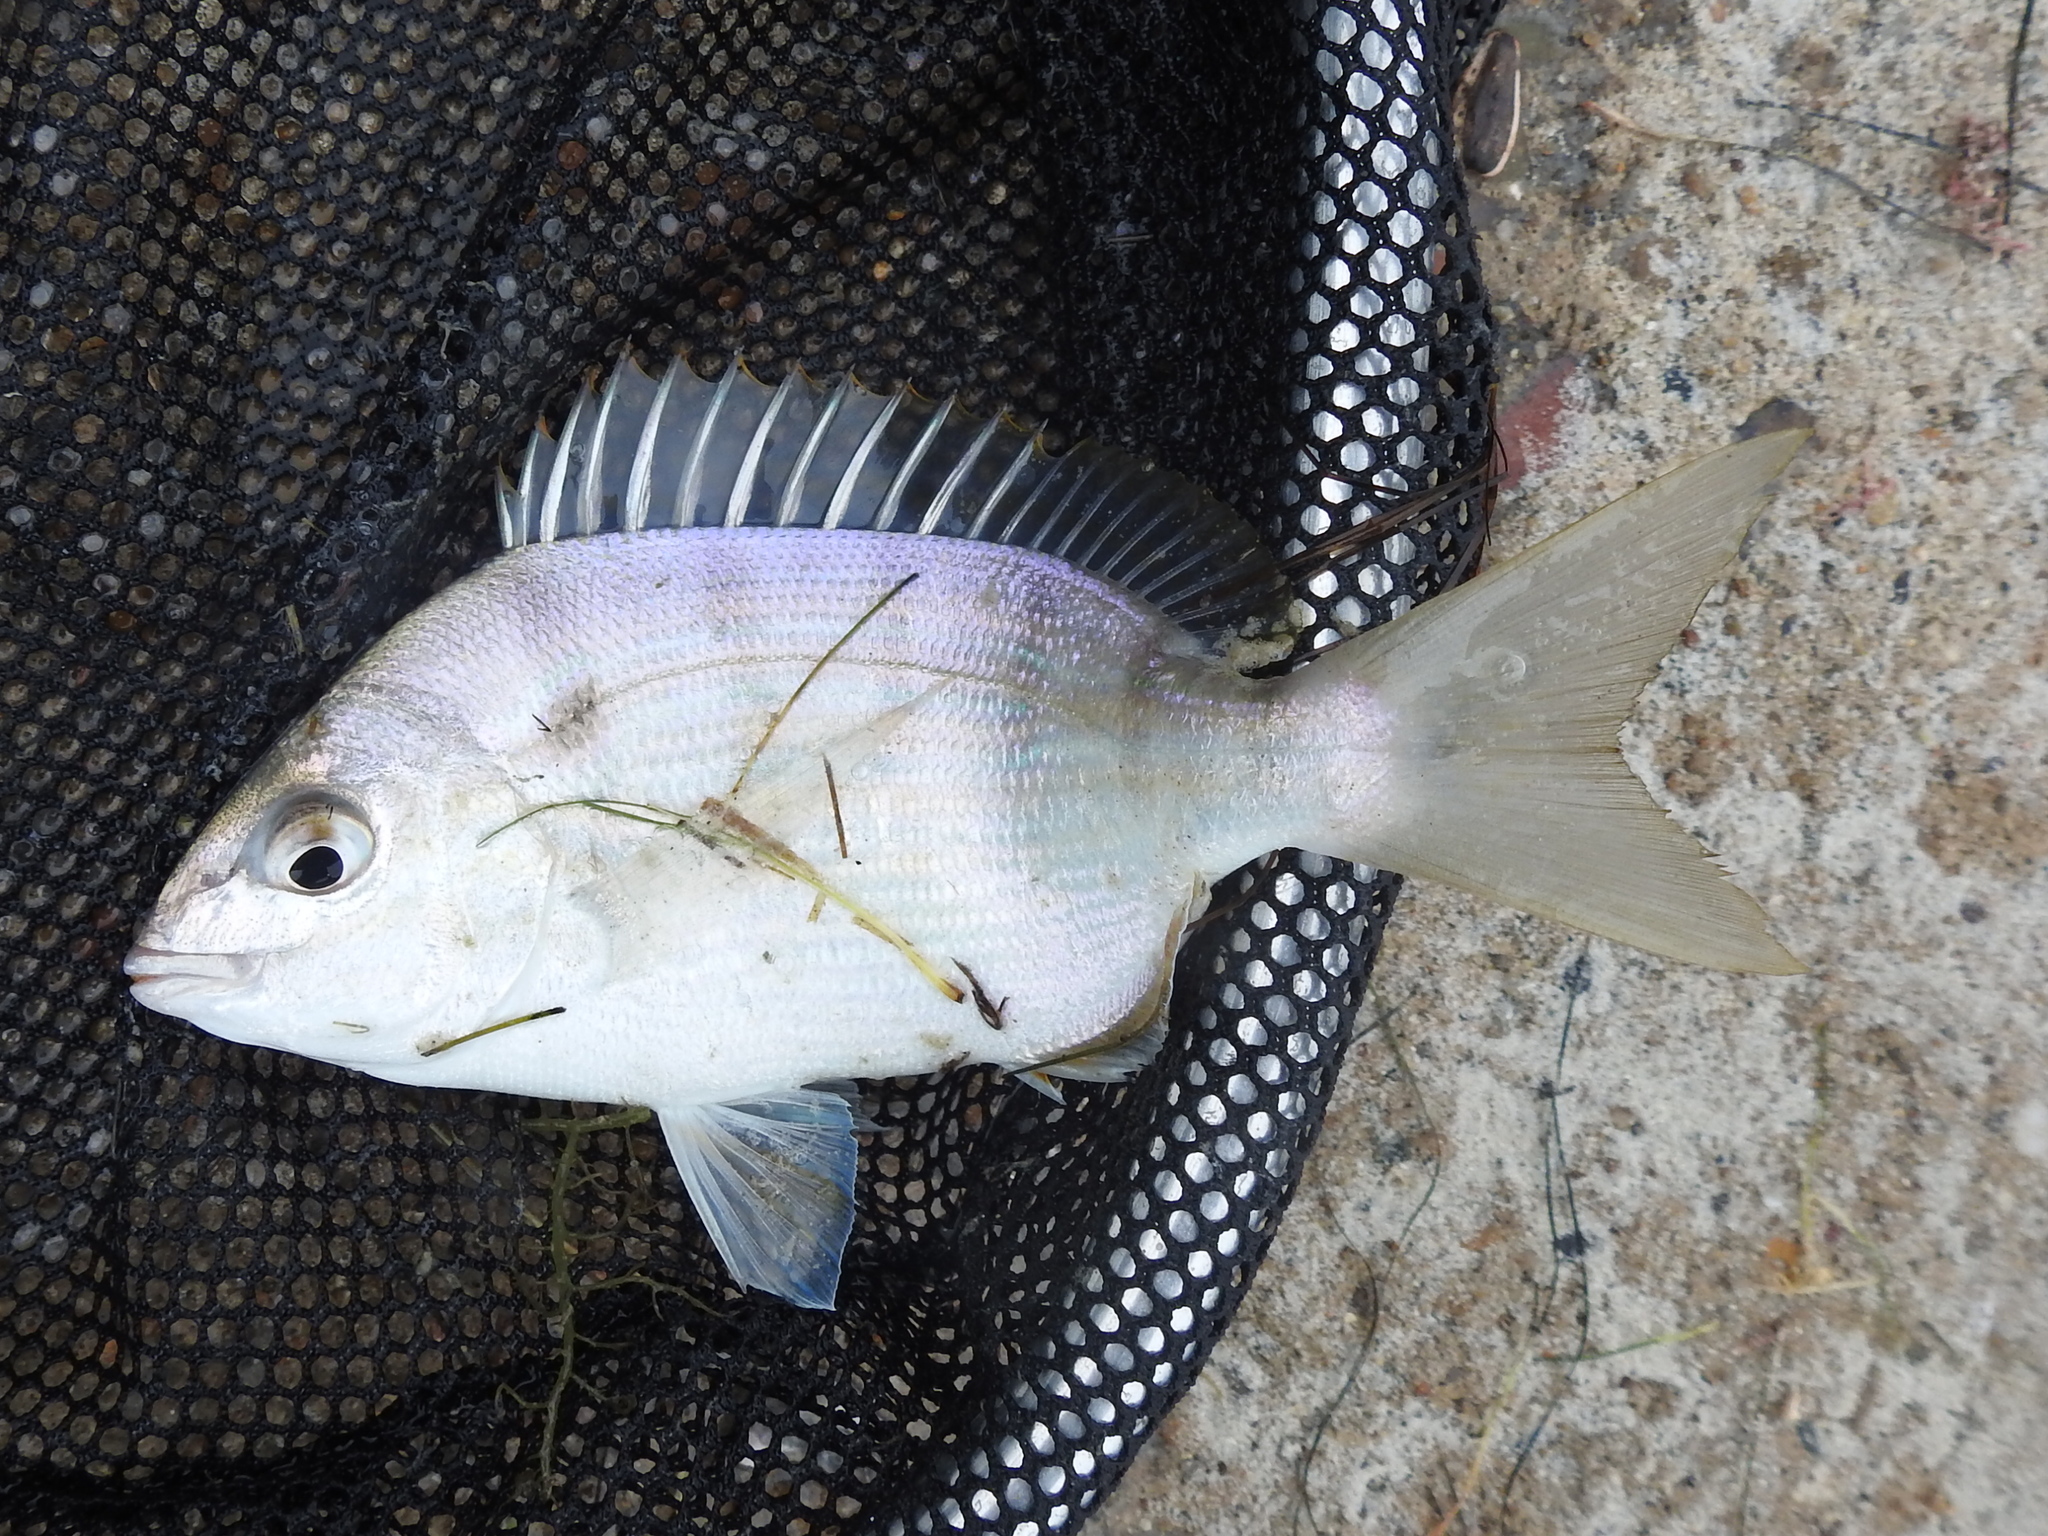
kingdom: Animalia
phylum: Chordata
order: Perciformes
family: Sparidae
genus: Lagodon
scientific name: Lagodon rhomboides
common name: Pinfish
